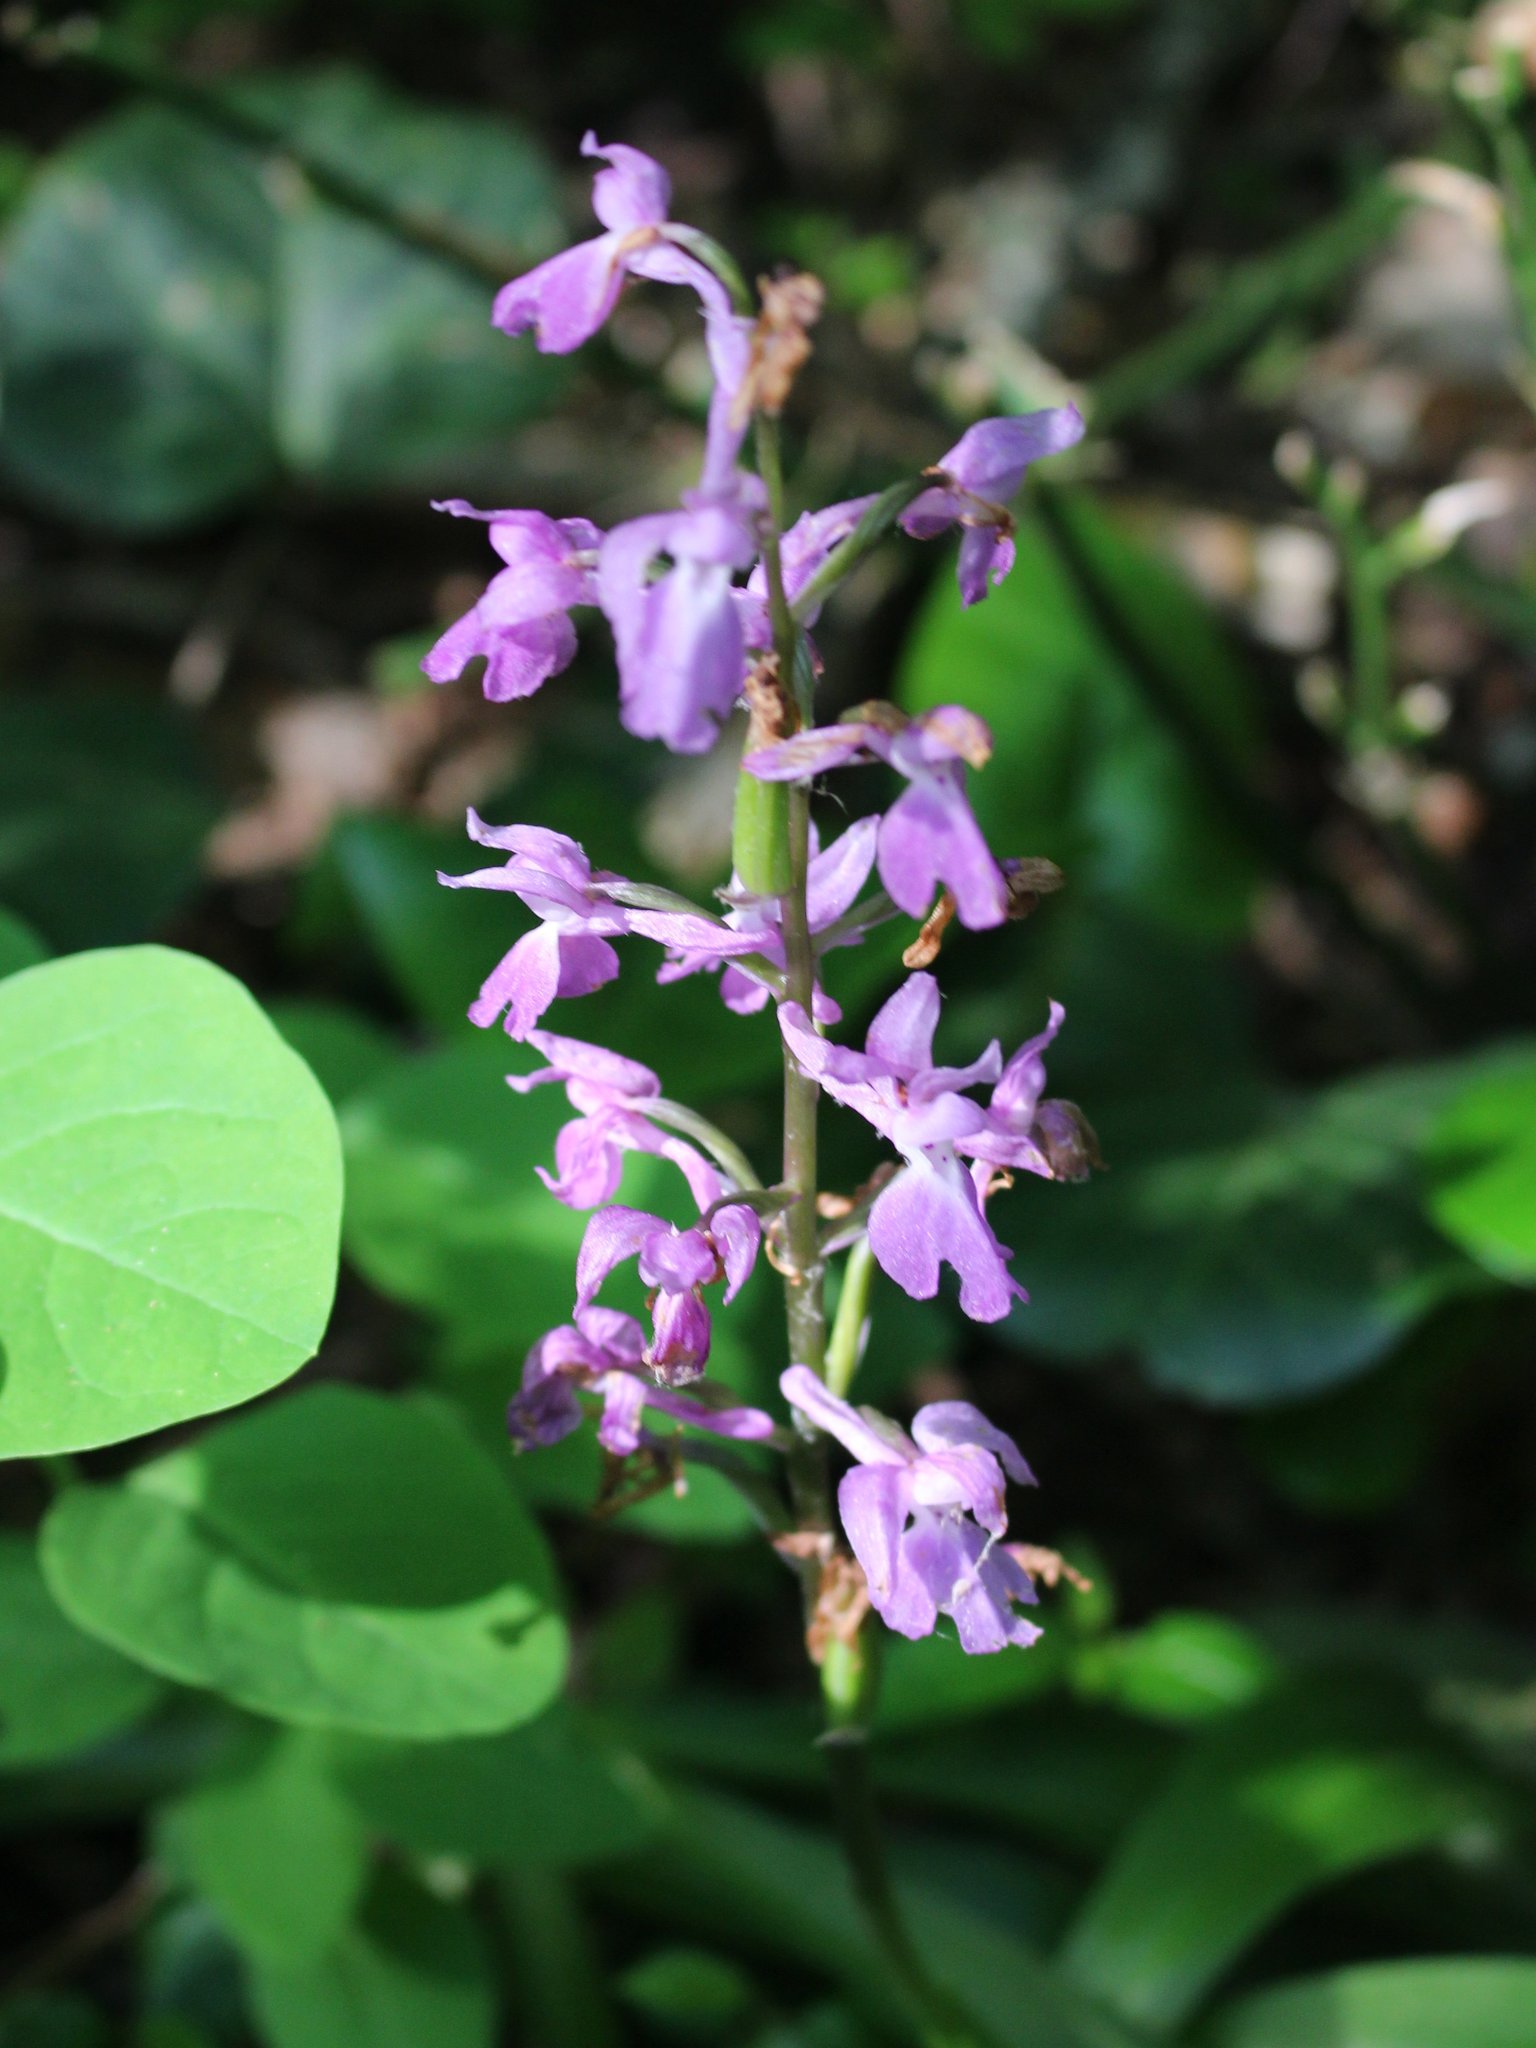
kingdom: Plantae
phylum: Tracheophyta
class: Liliopsida
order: Asparagales
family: Orchidaceae
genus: Orchis
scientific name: Orchis mascula
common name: Early-purple orchid
